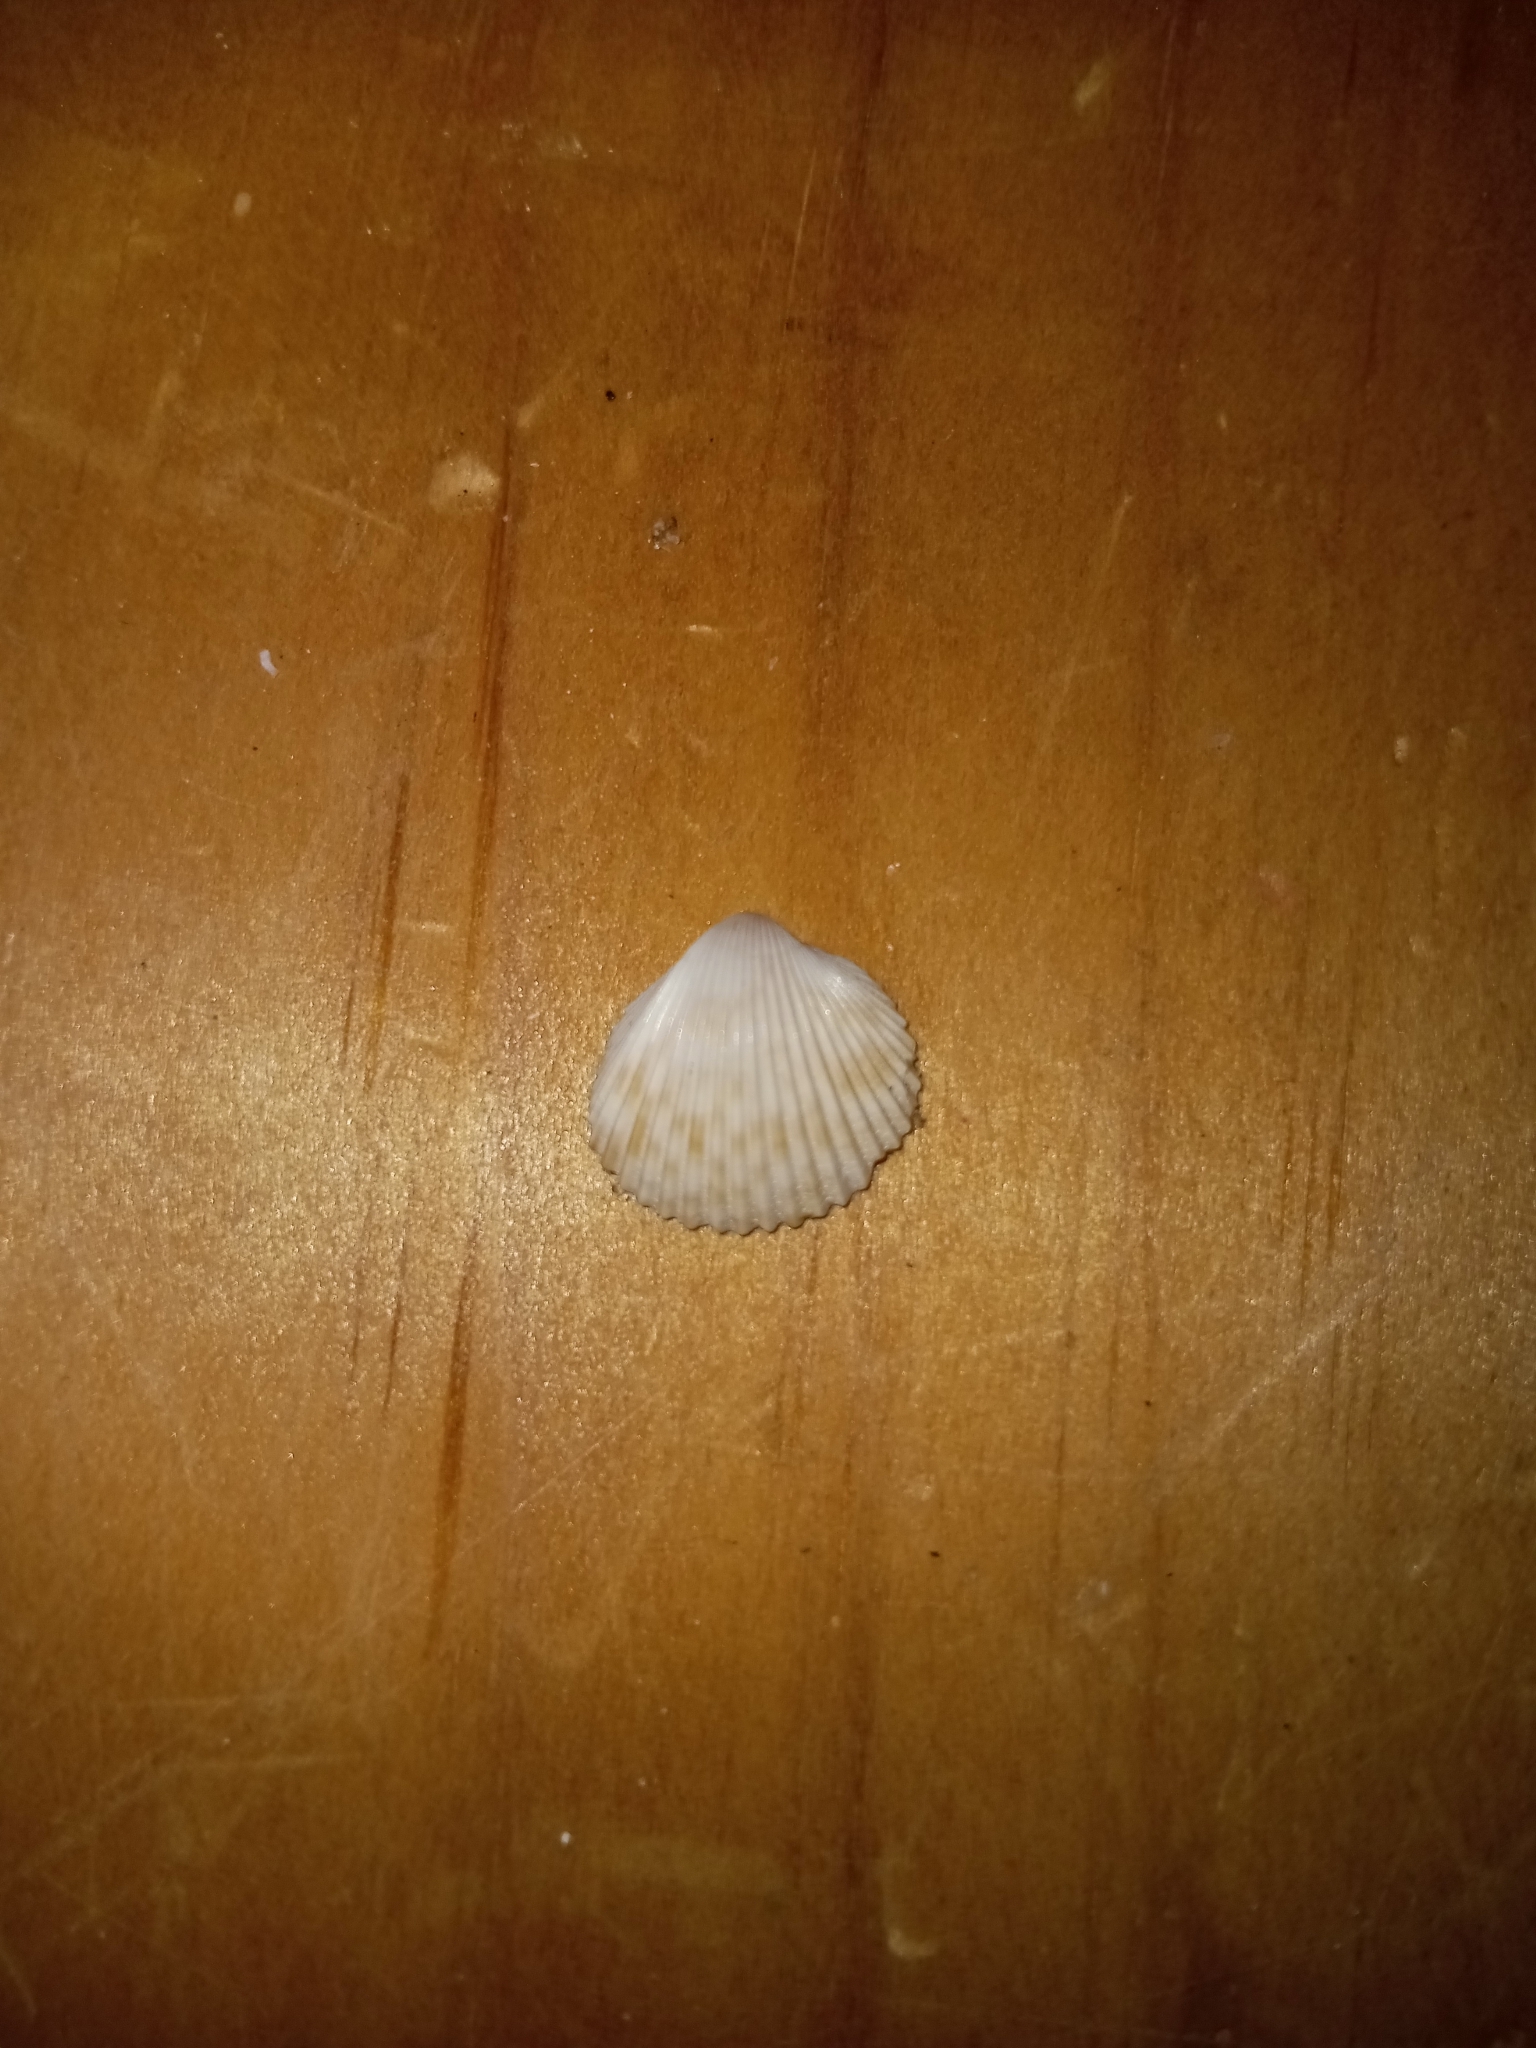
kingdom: Animalia
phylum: Mollusca
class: Bivalvia
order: Cardiida
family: Cardiidae
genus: Dinocardium
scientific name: Dinocardium robustum
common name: Atlantic giant cockle
